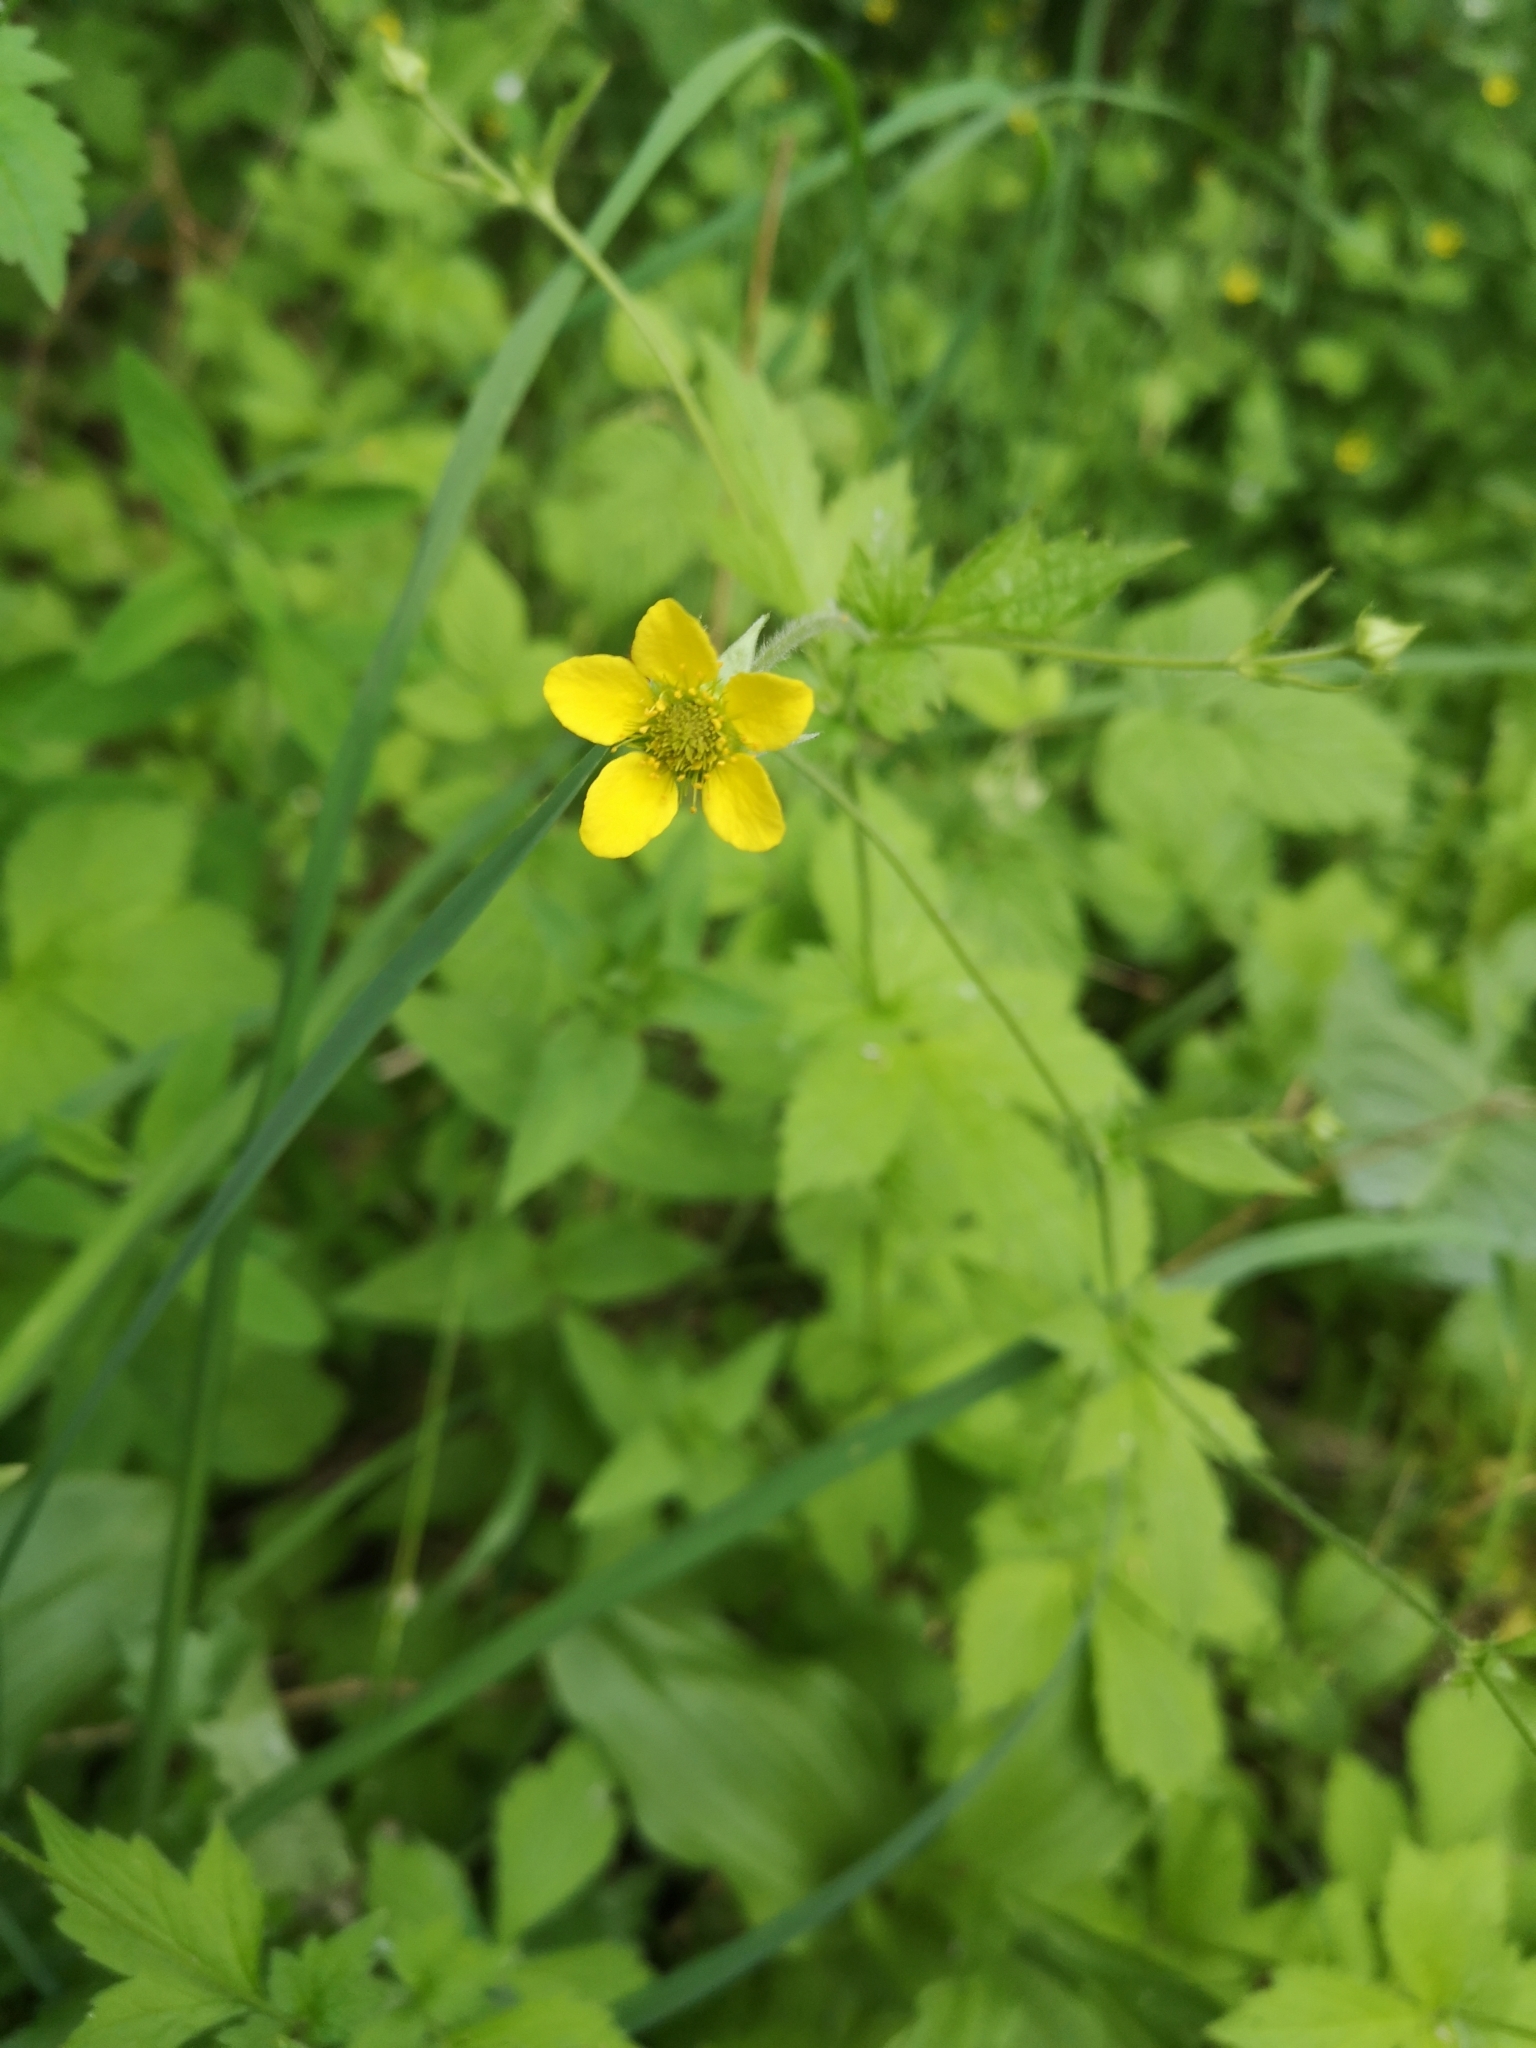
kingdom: Plantae
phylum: Tracheophyta
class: Magnoliopsida
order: Rosales
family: Rosaceae
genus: Geum
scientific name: Geum urbanum
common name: Wood avens
